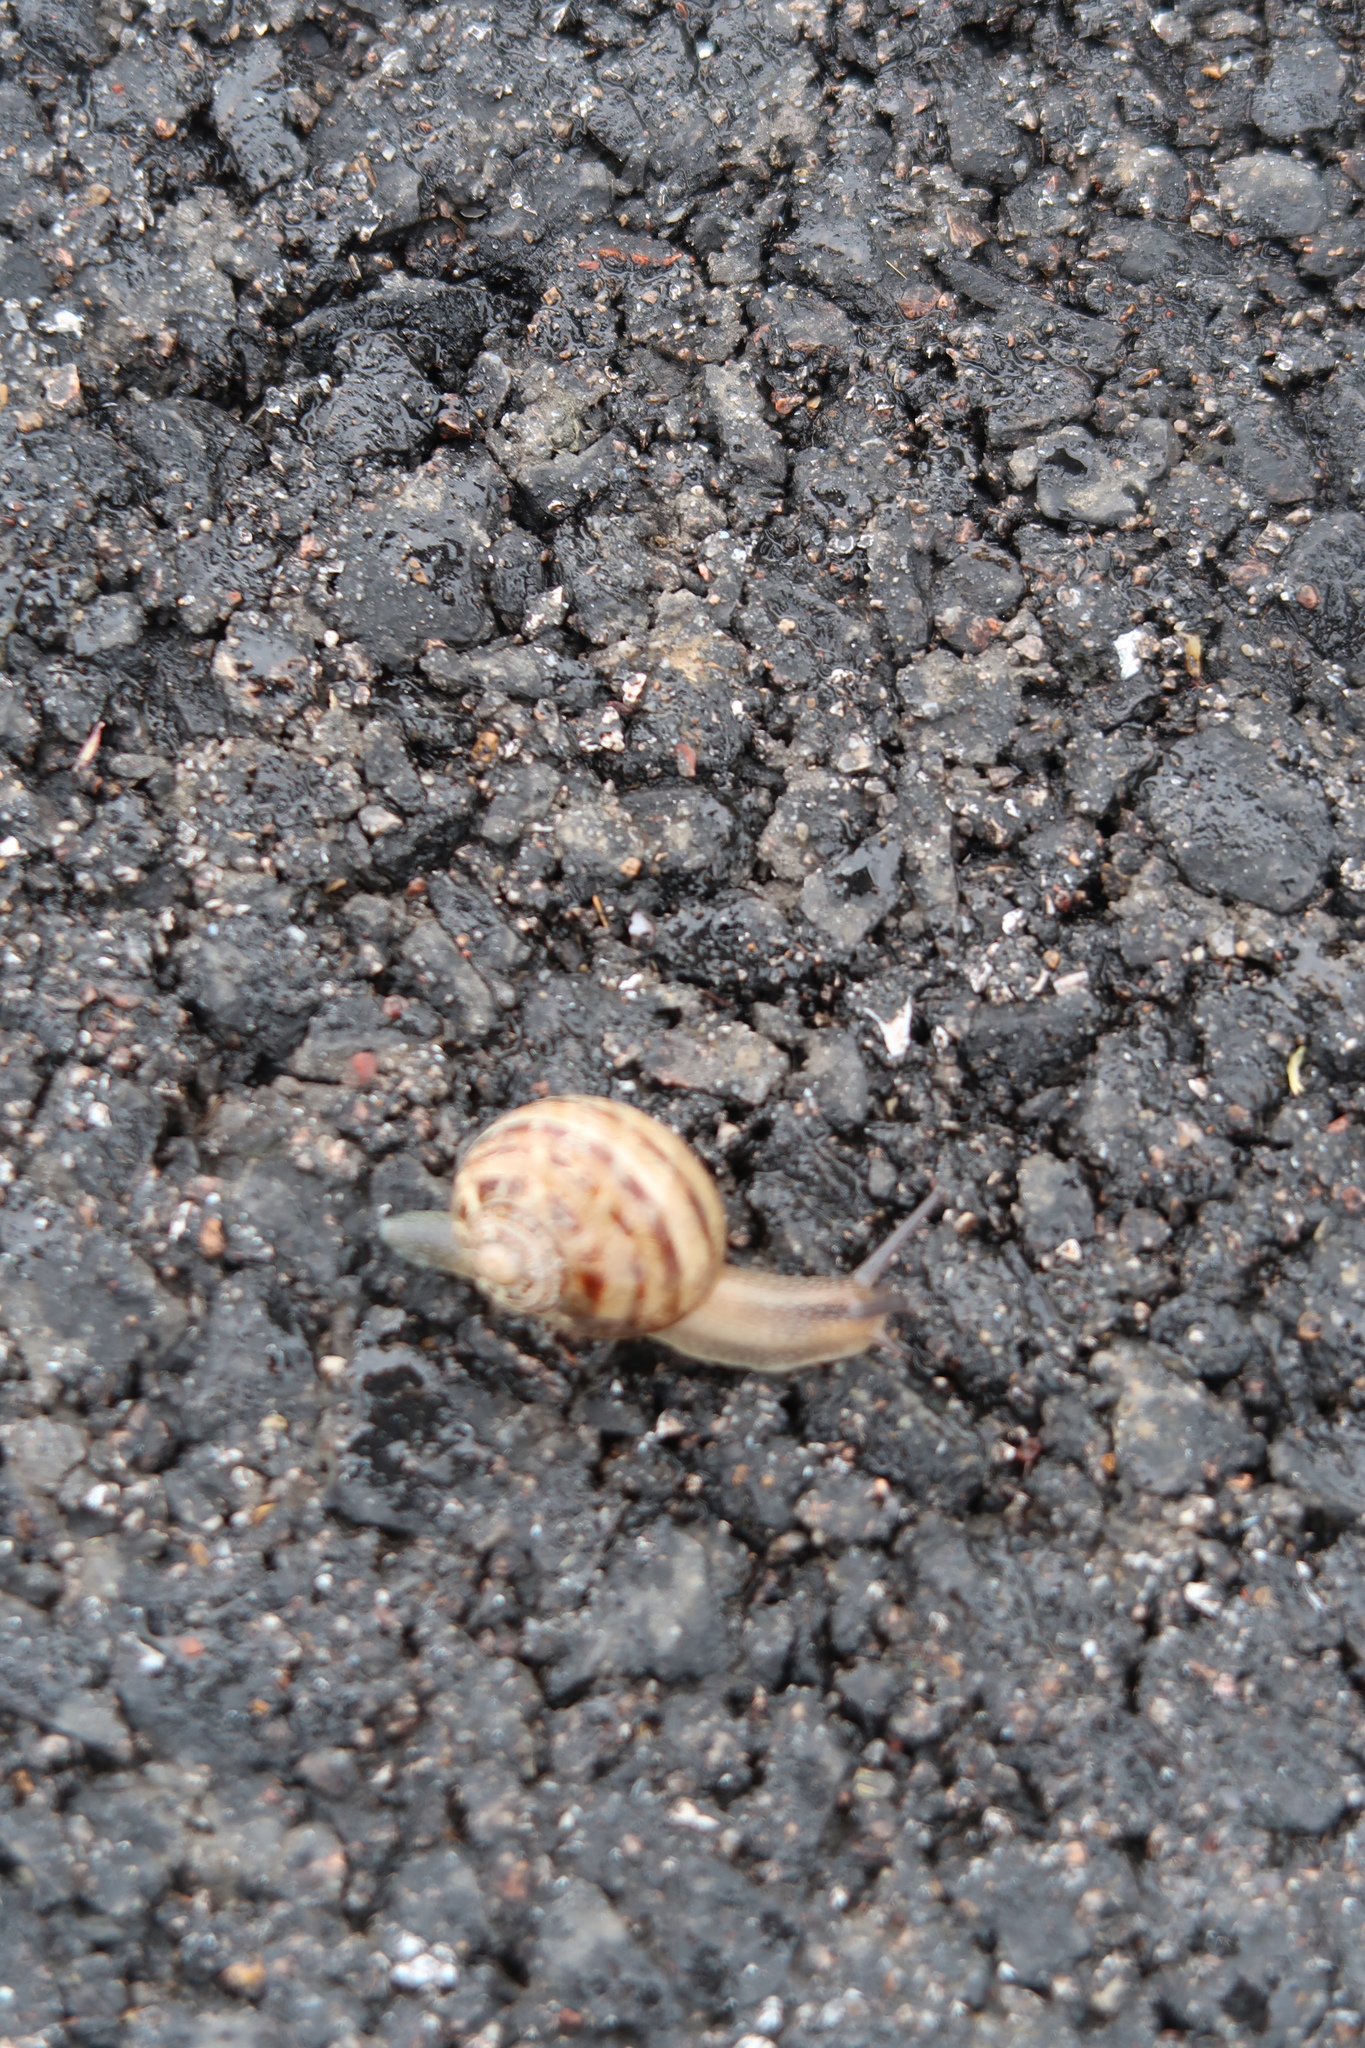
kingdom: Animalia
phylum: Mollusca
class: Gastropoda
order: Stylommatophora
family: Helicidae
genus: Cornu
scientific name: Cornu aspersum
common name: Brown garden snail
